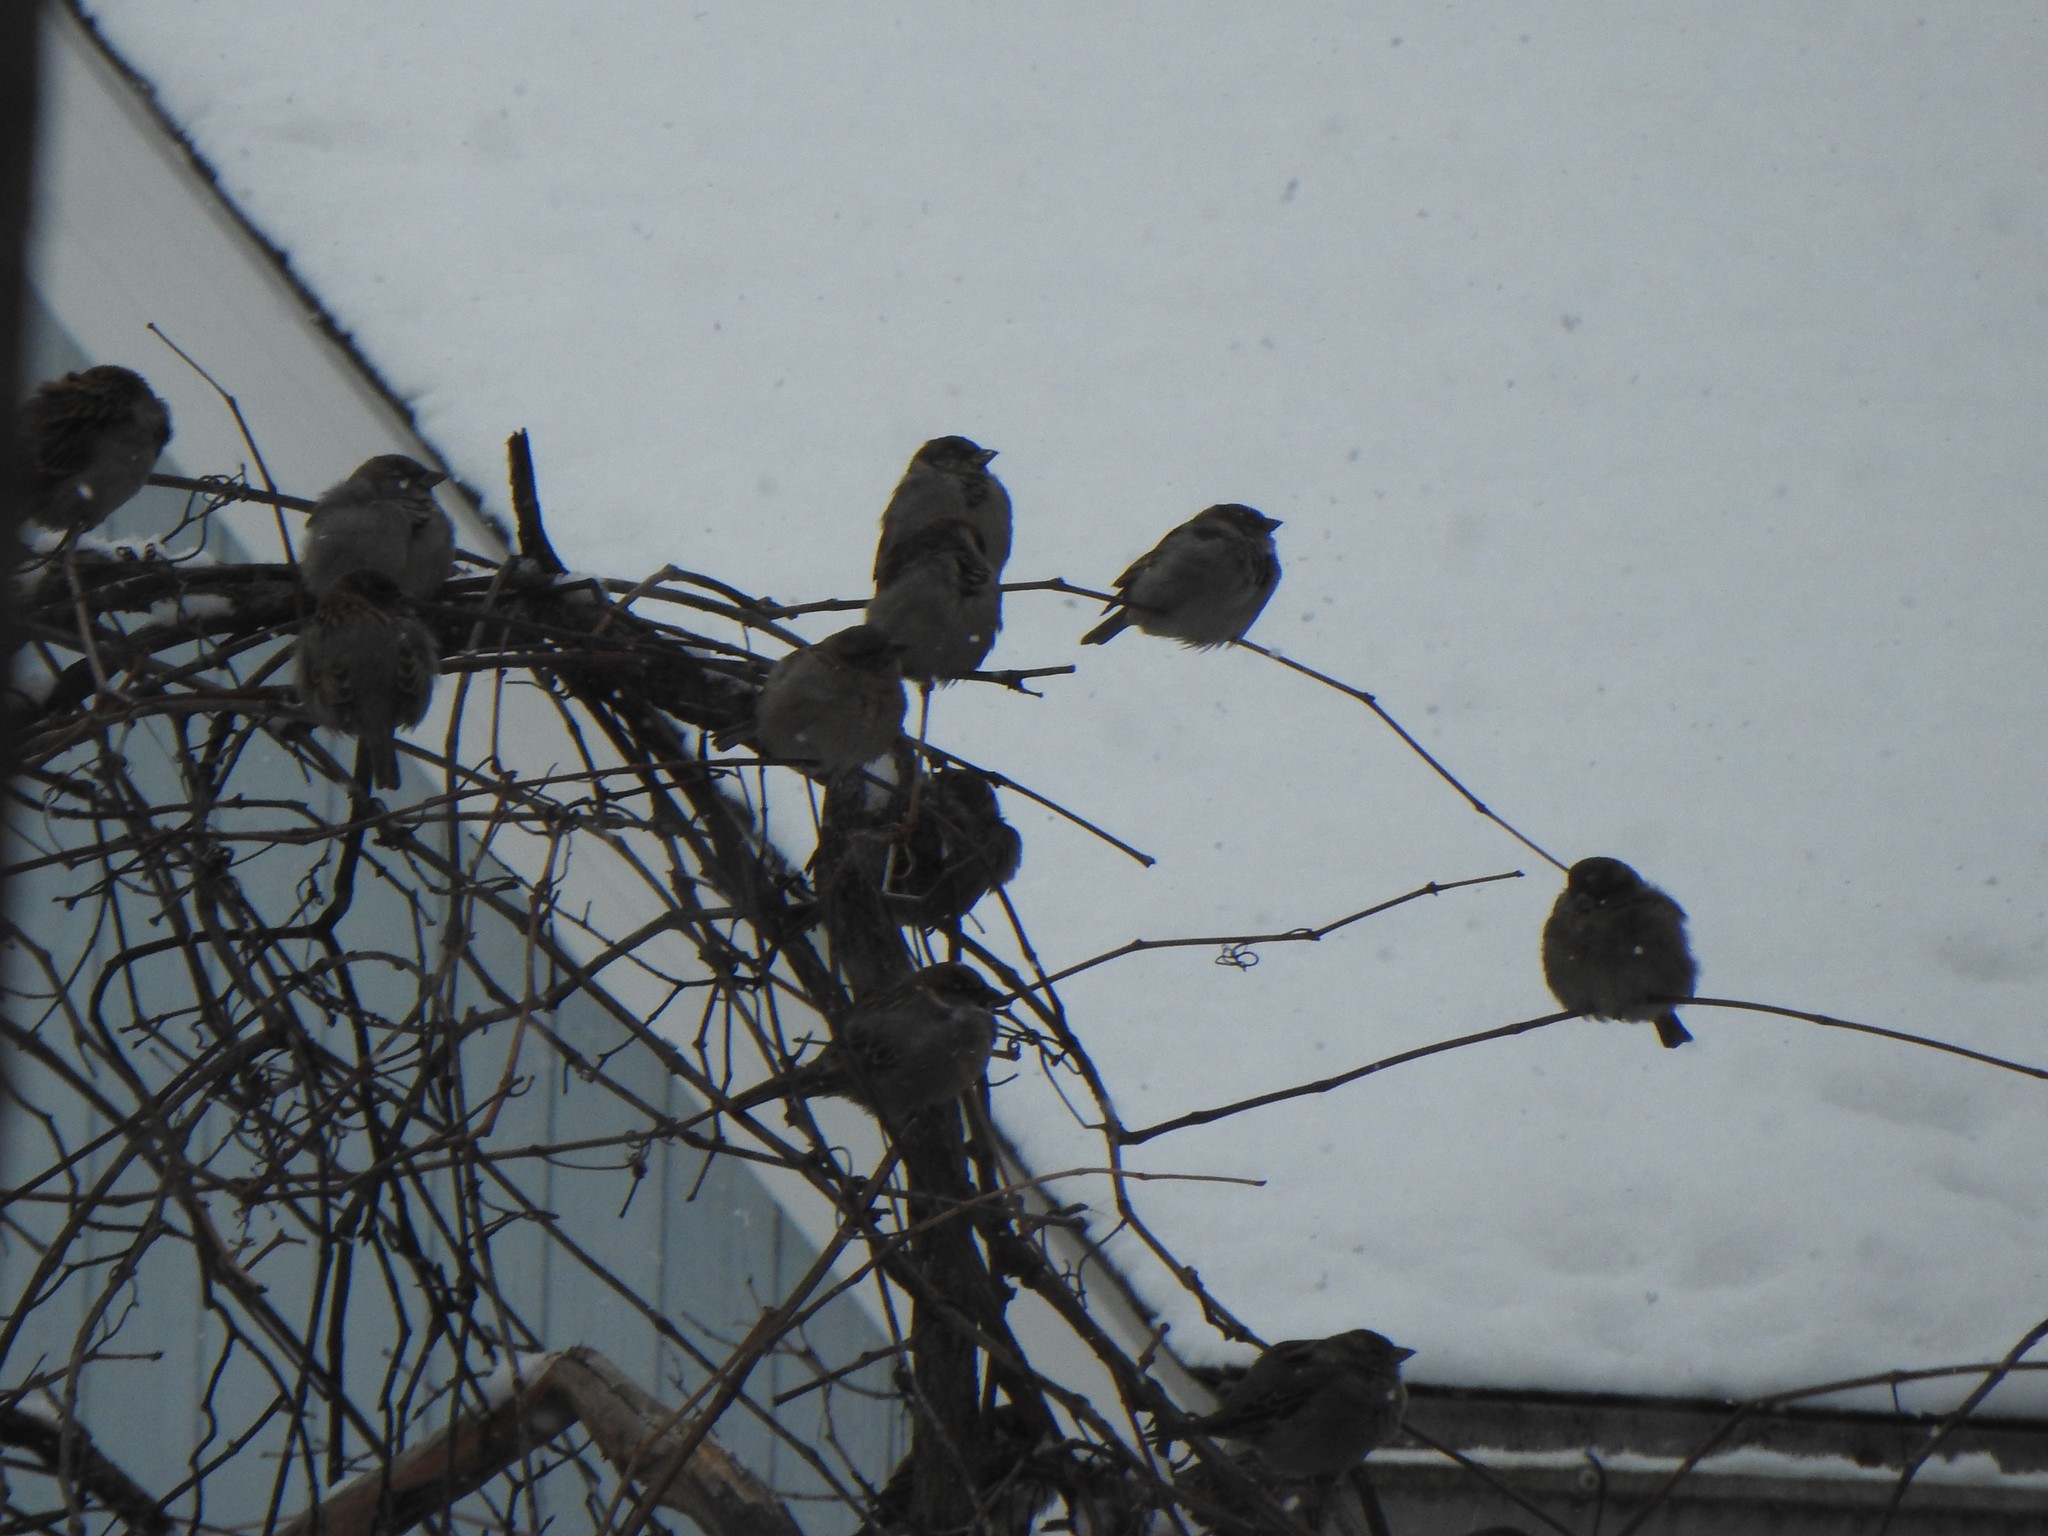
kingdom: Animalia
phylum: Chordata
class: Aves
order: Passeriformes
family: Passeridae
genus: Passer
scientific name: Passer domesticus
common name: House sparrow
